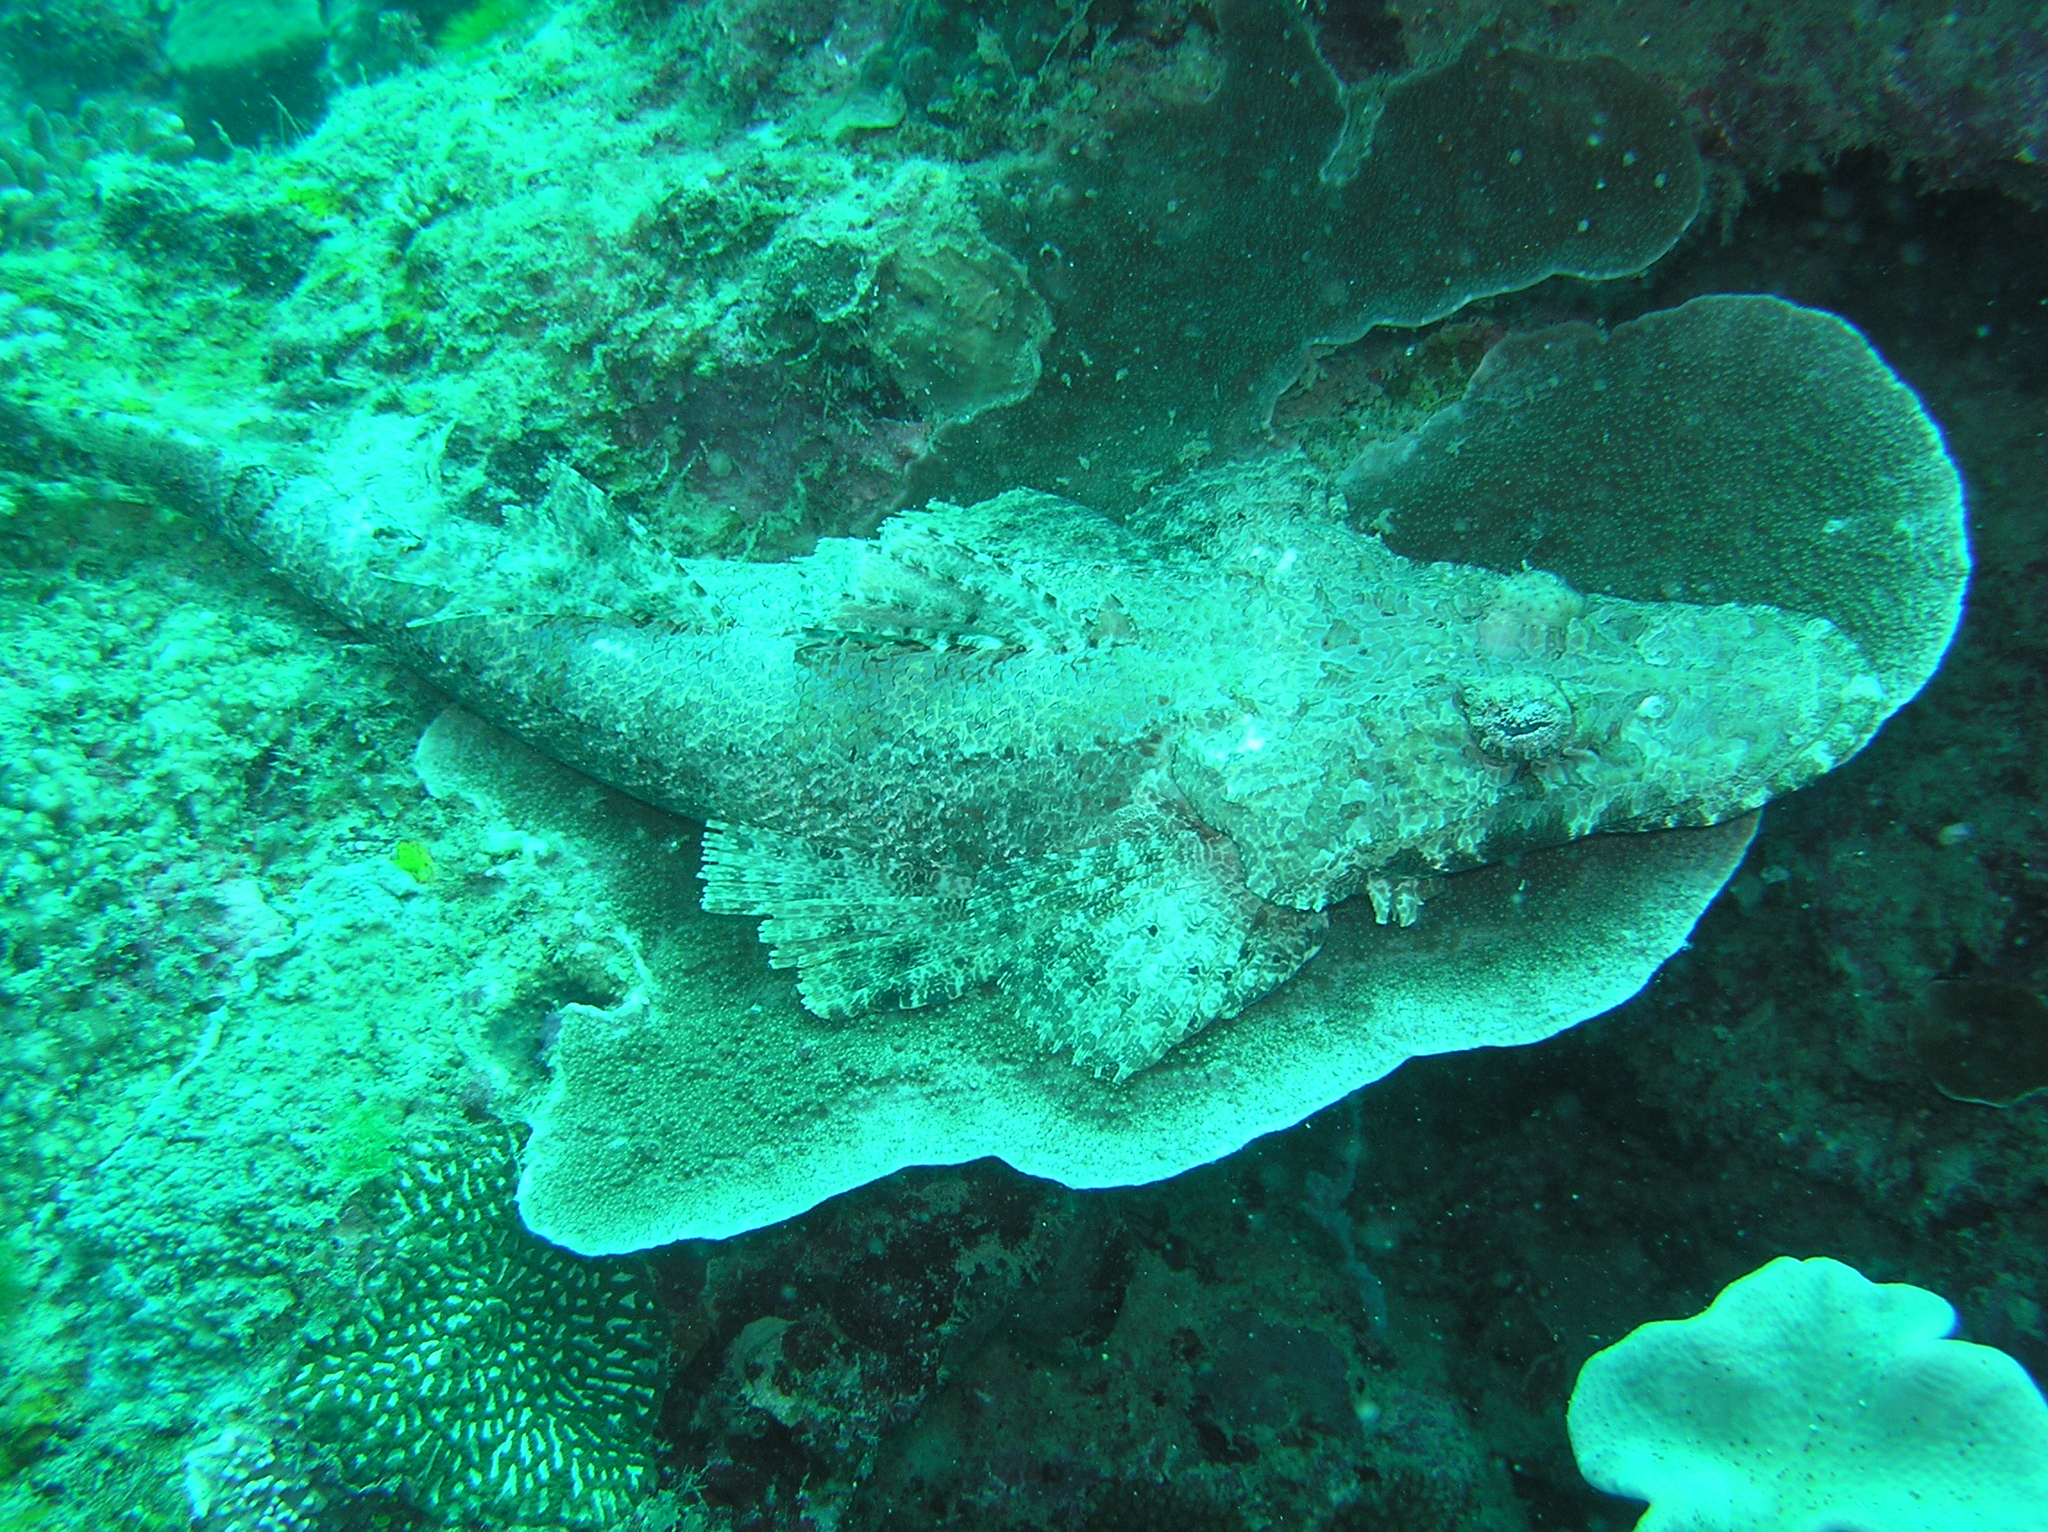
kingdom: Animalia
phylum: Chordata
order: Scorpaeniformes
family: Platycephalidae
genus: Cymbacephalus
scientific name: Cymbacephalus beauforti
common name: Crocodile fish
